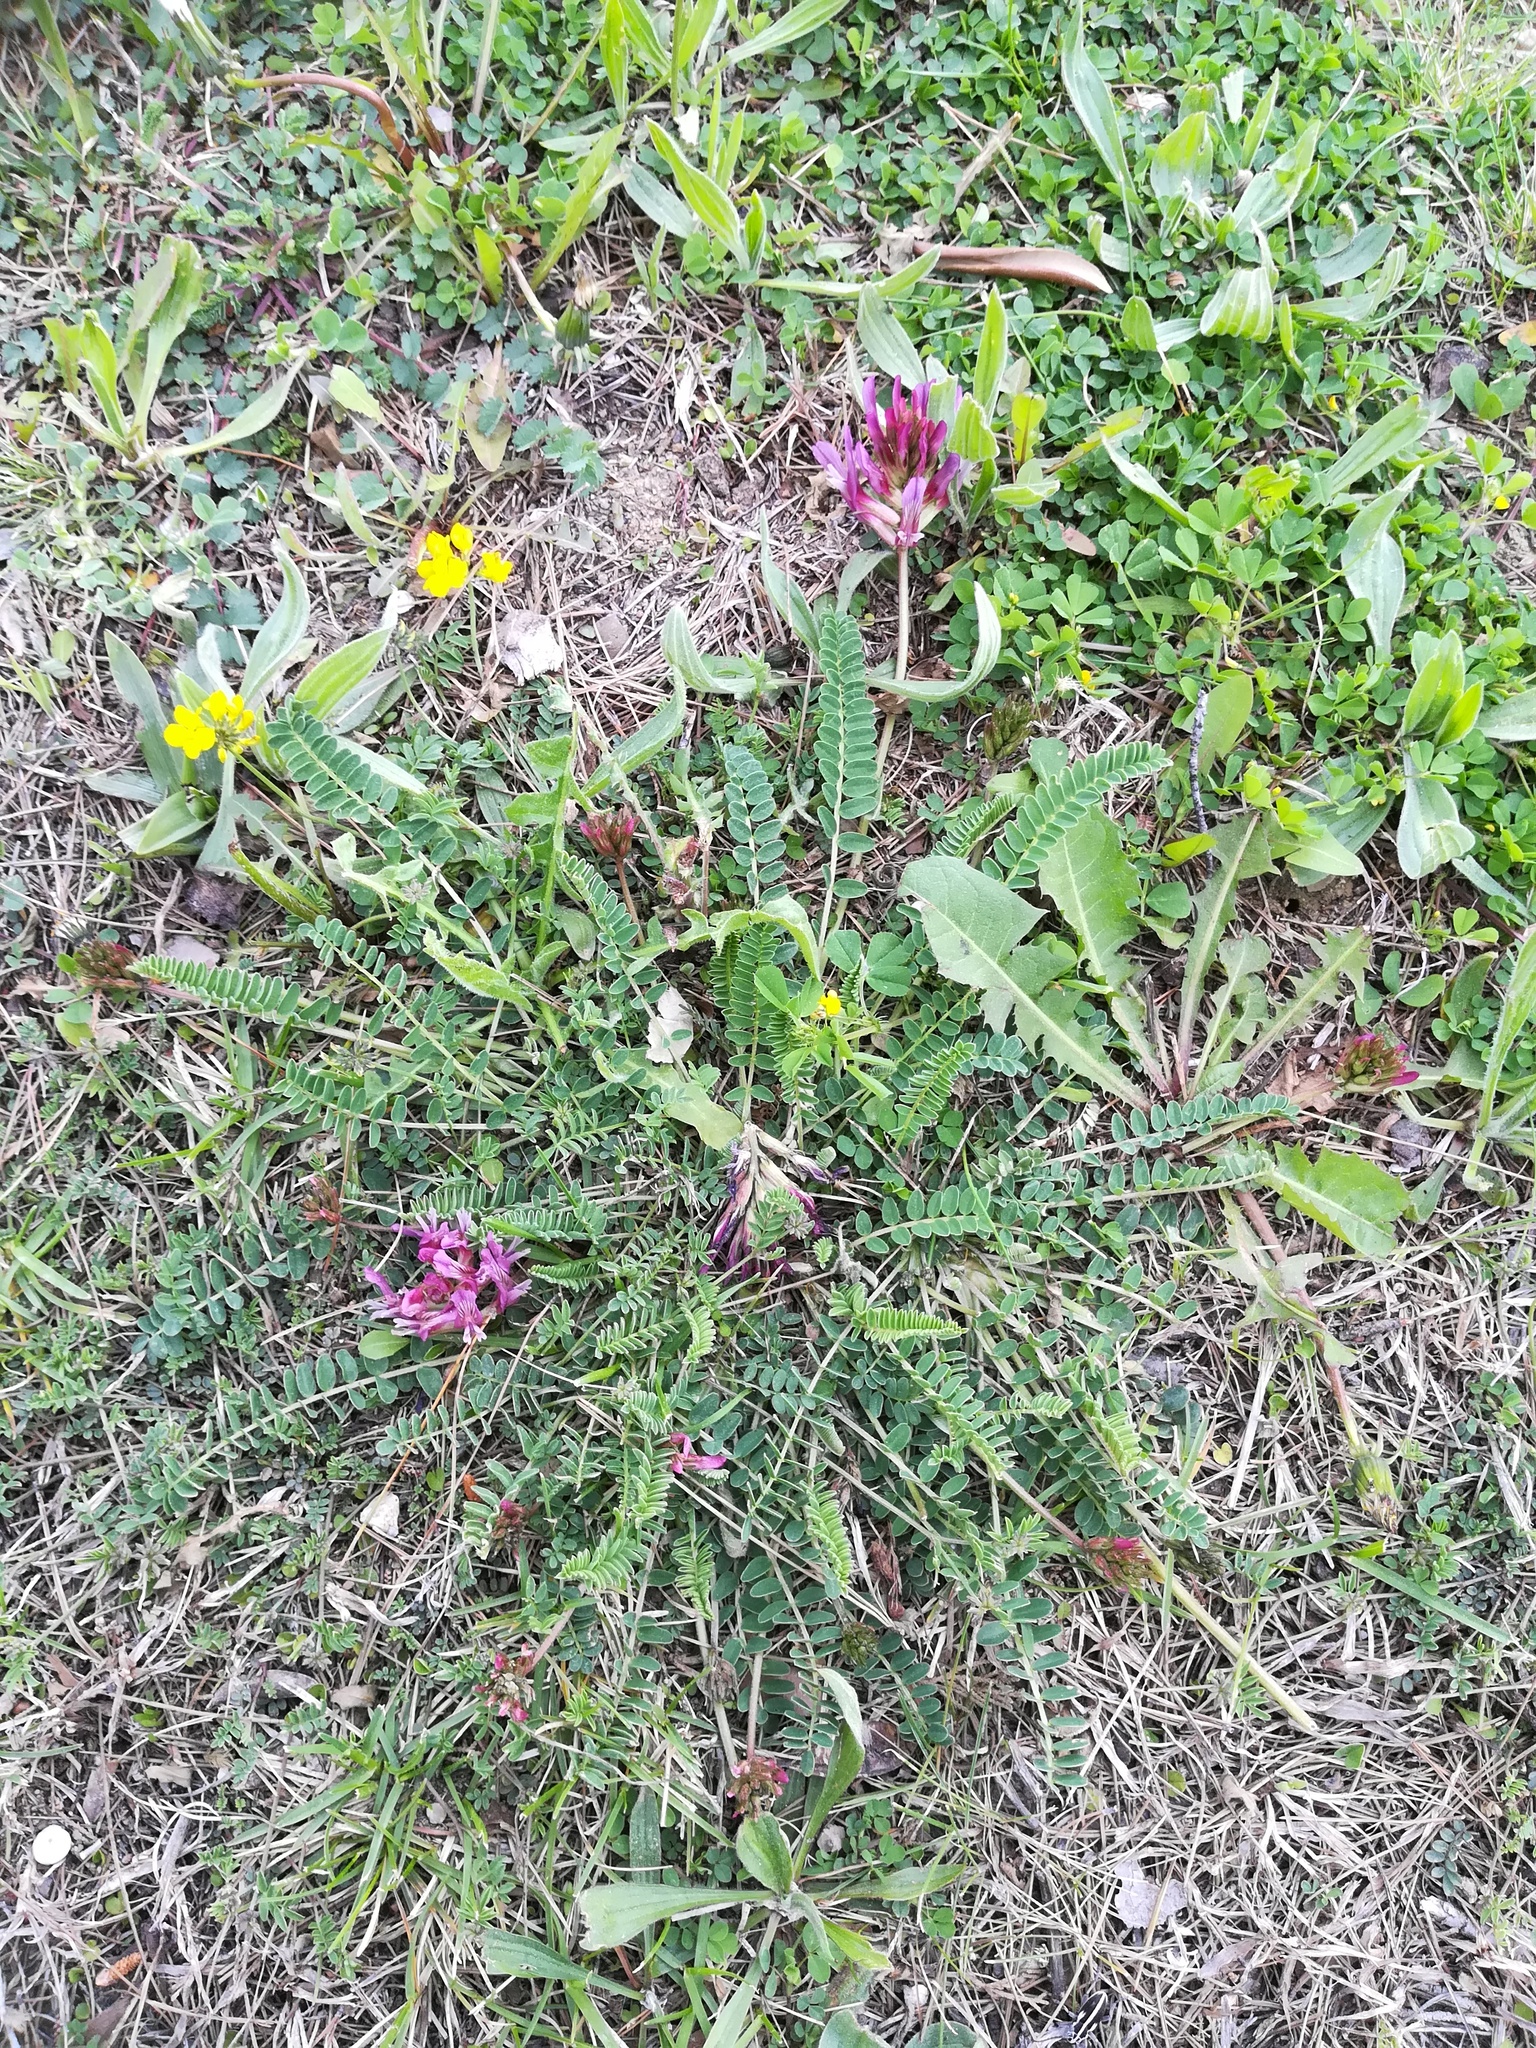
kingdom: Plantae
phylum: Tracheophyta
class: Magnoliopsida
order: Fabales
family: Fabaceae
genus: Astragalus
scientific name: Astragalus monspessulanus
